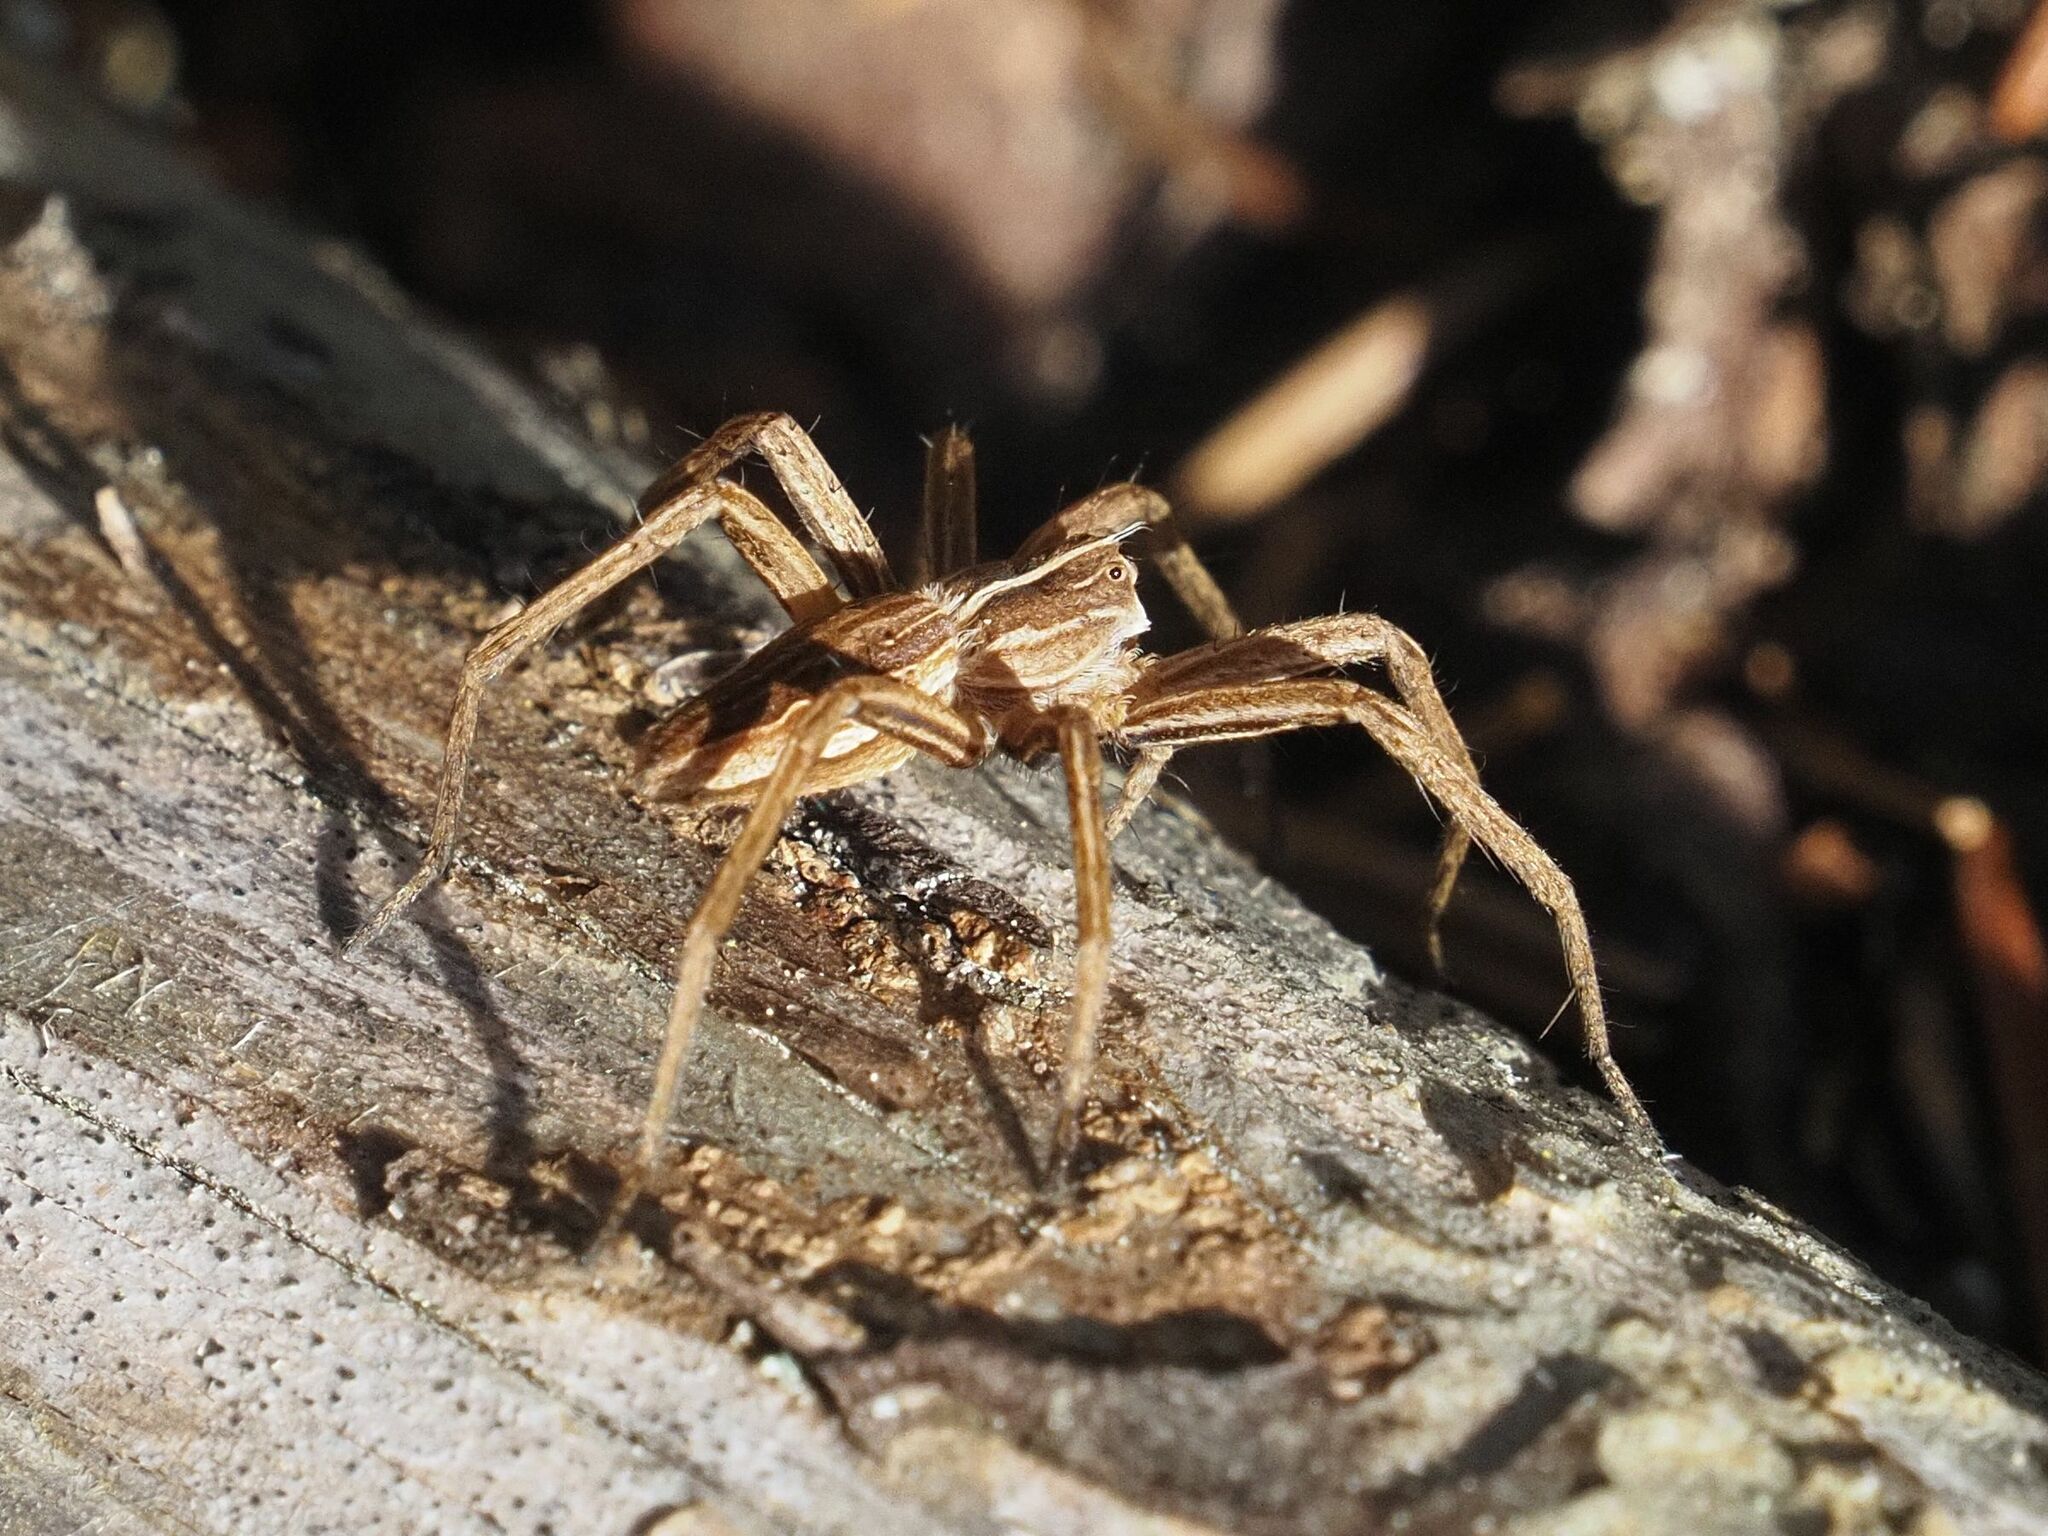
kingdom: Animalia
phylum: Arthropoda
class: Arachnida
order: Araneae
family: Pisauridae
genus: Pisaura
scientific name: Pisaura mirabilis
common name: Tent spider
